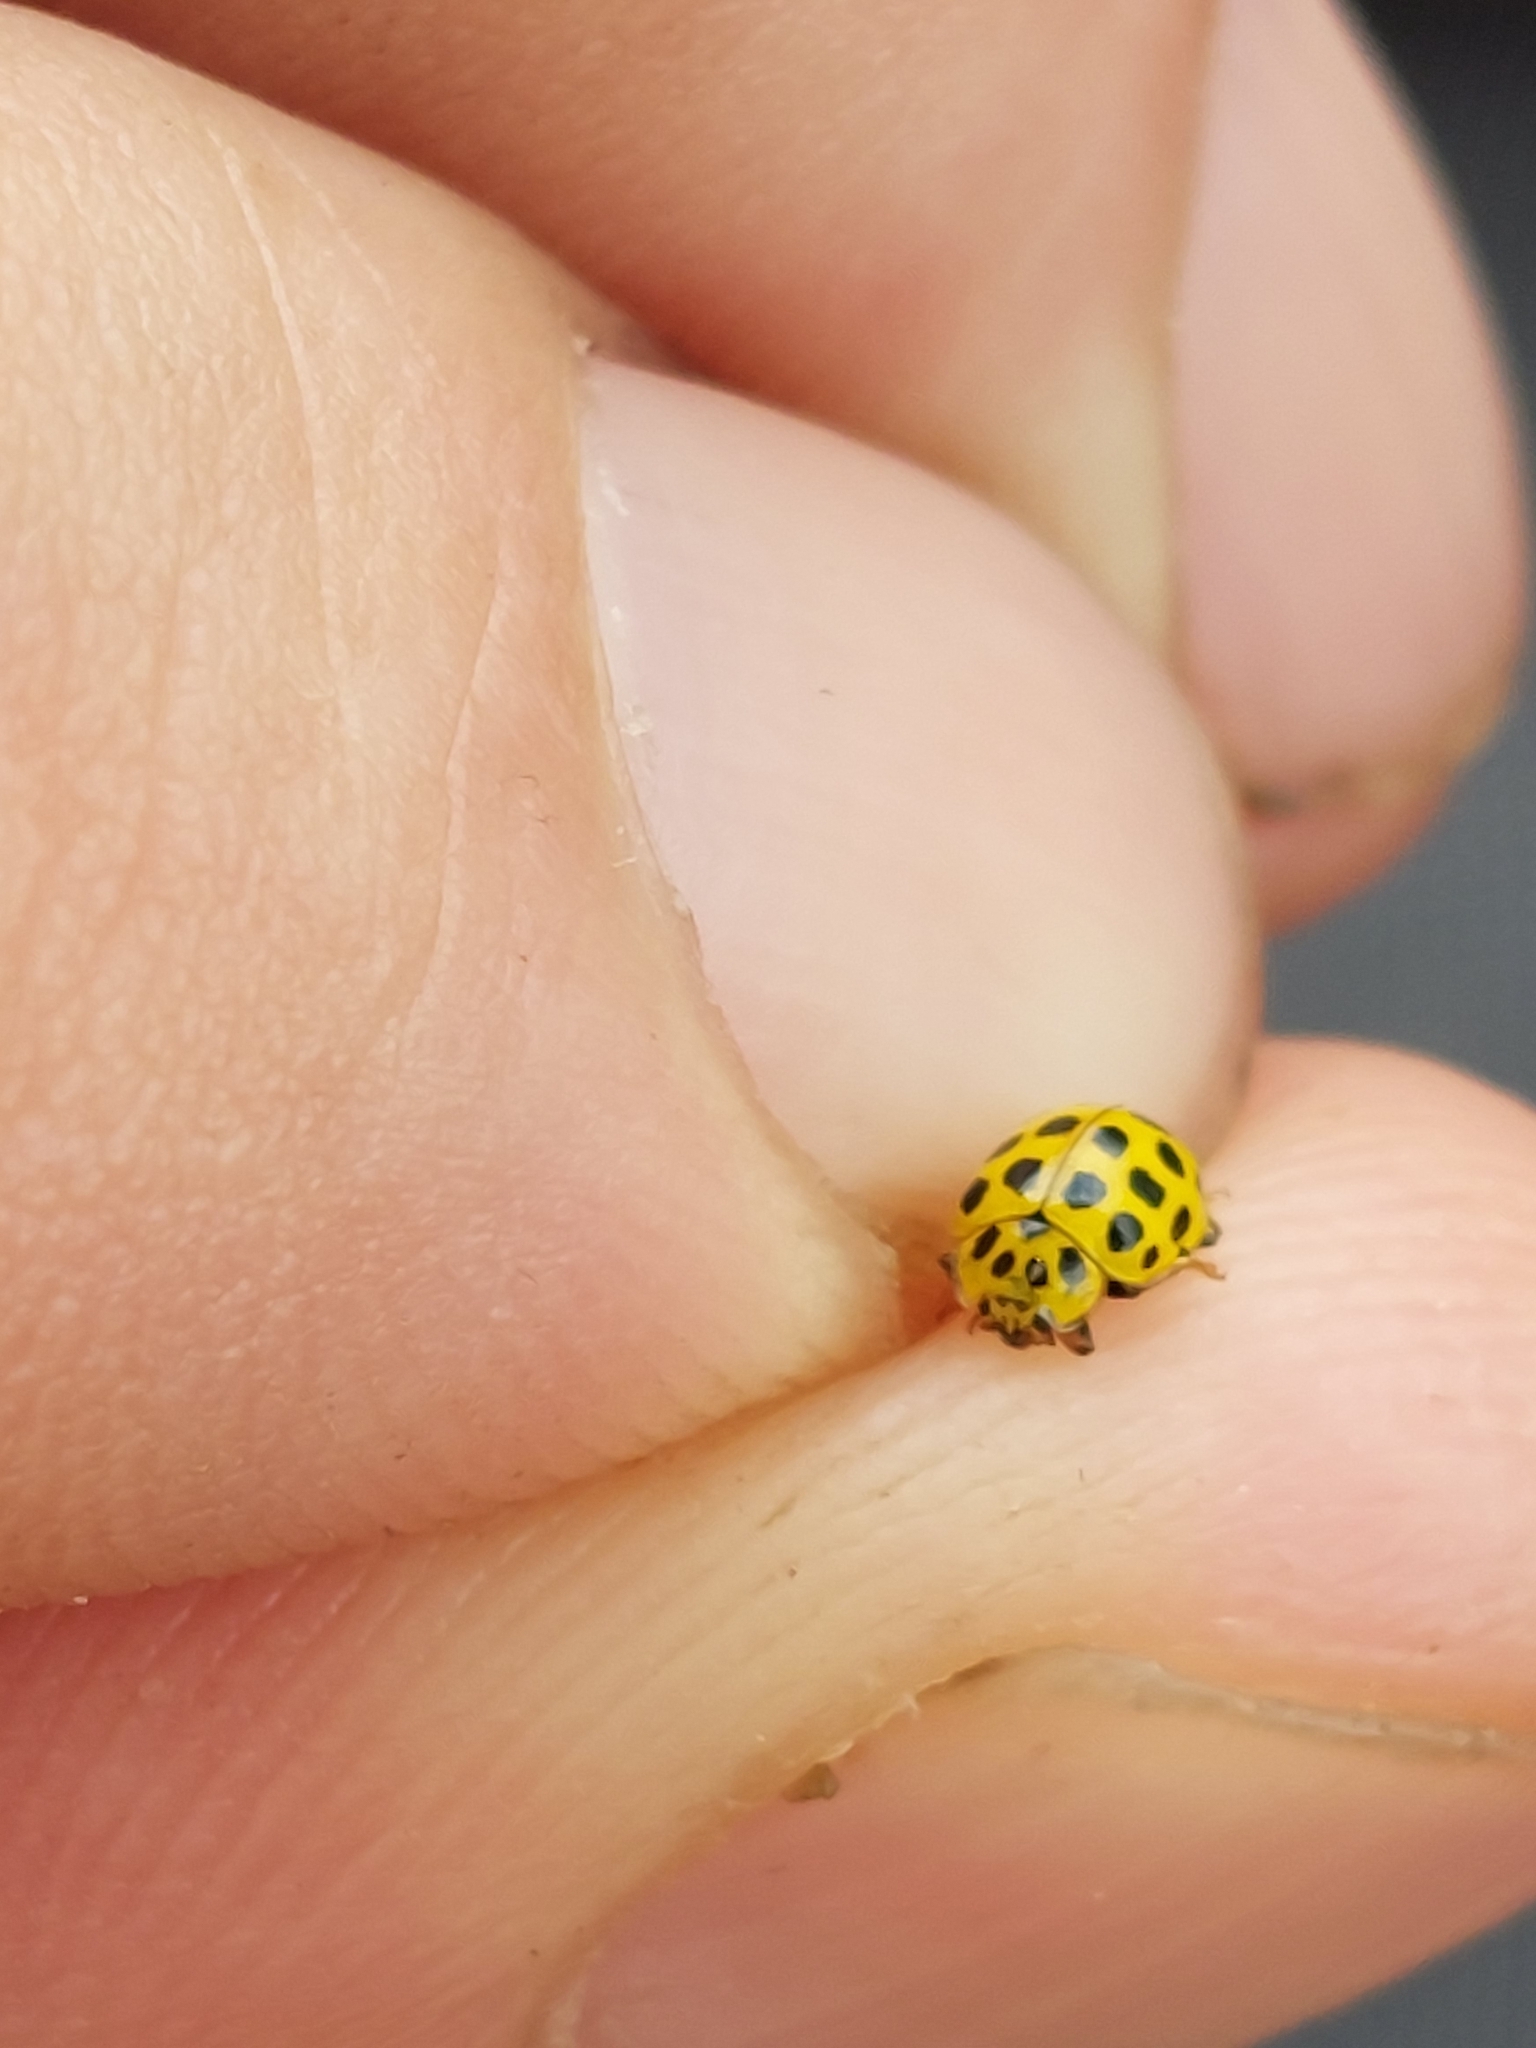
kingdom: Animalia
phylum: Arthropoda
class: Insecta
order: Coleoptera
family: Coccinellidae
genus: Psyllobora
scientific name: Psyllobora vigintiduopunctata
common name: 22-spot ladybird
